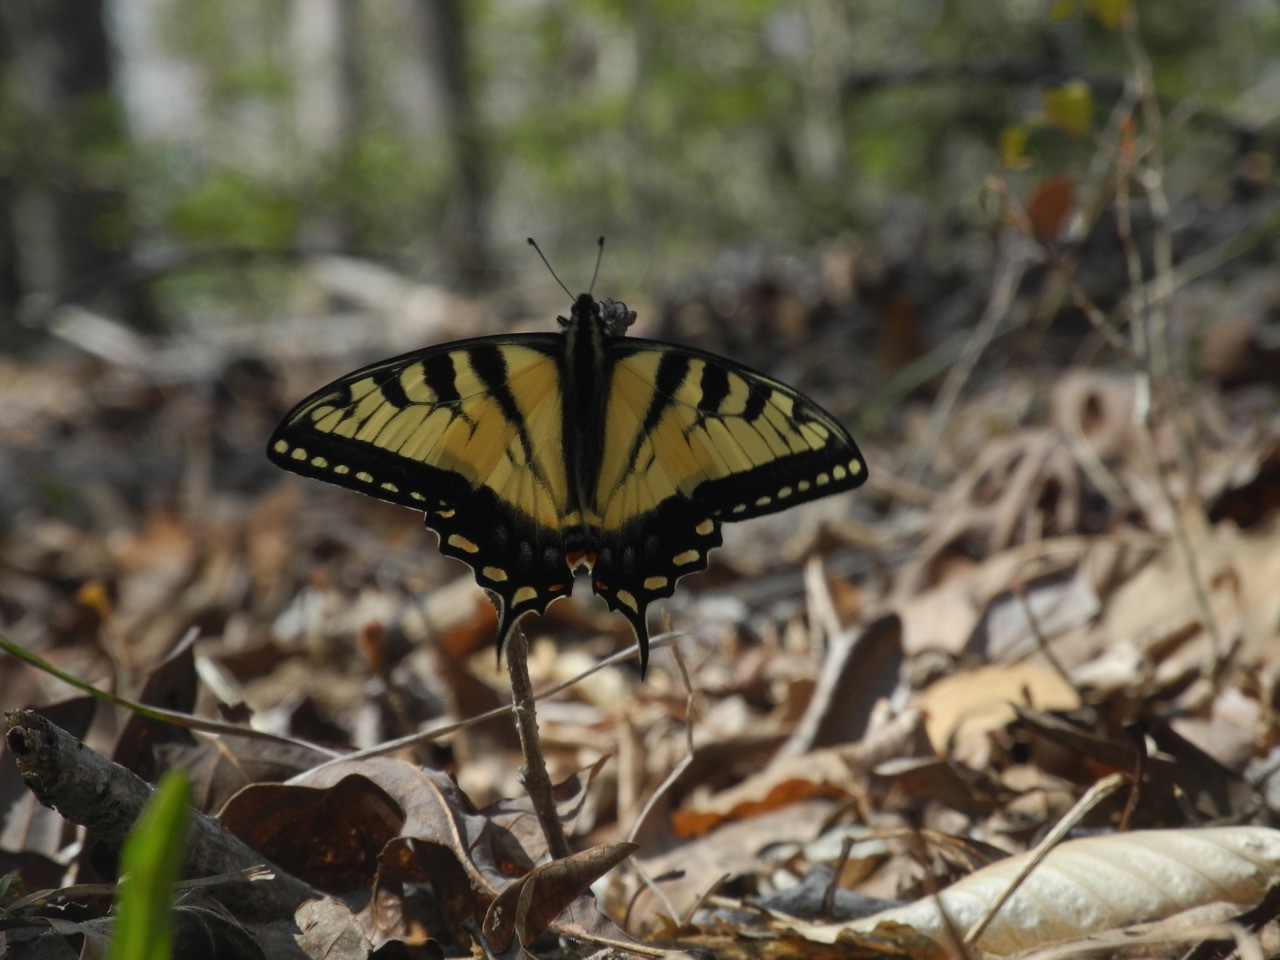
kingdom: Animalia
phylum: Arthropoda
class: Insecta
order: Lepidoptera
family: Papilionidae
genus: Papilio
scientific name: Papilio glaucus
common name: Tiger swallowtail
